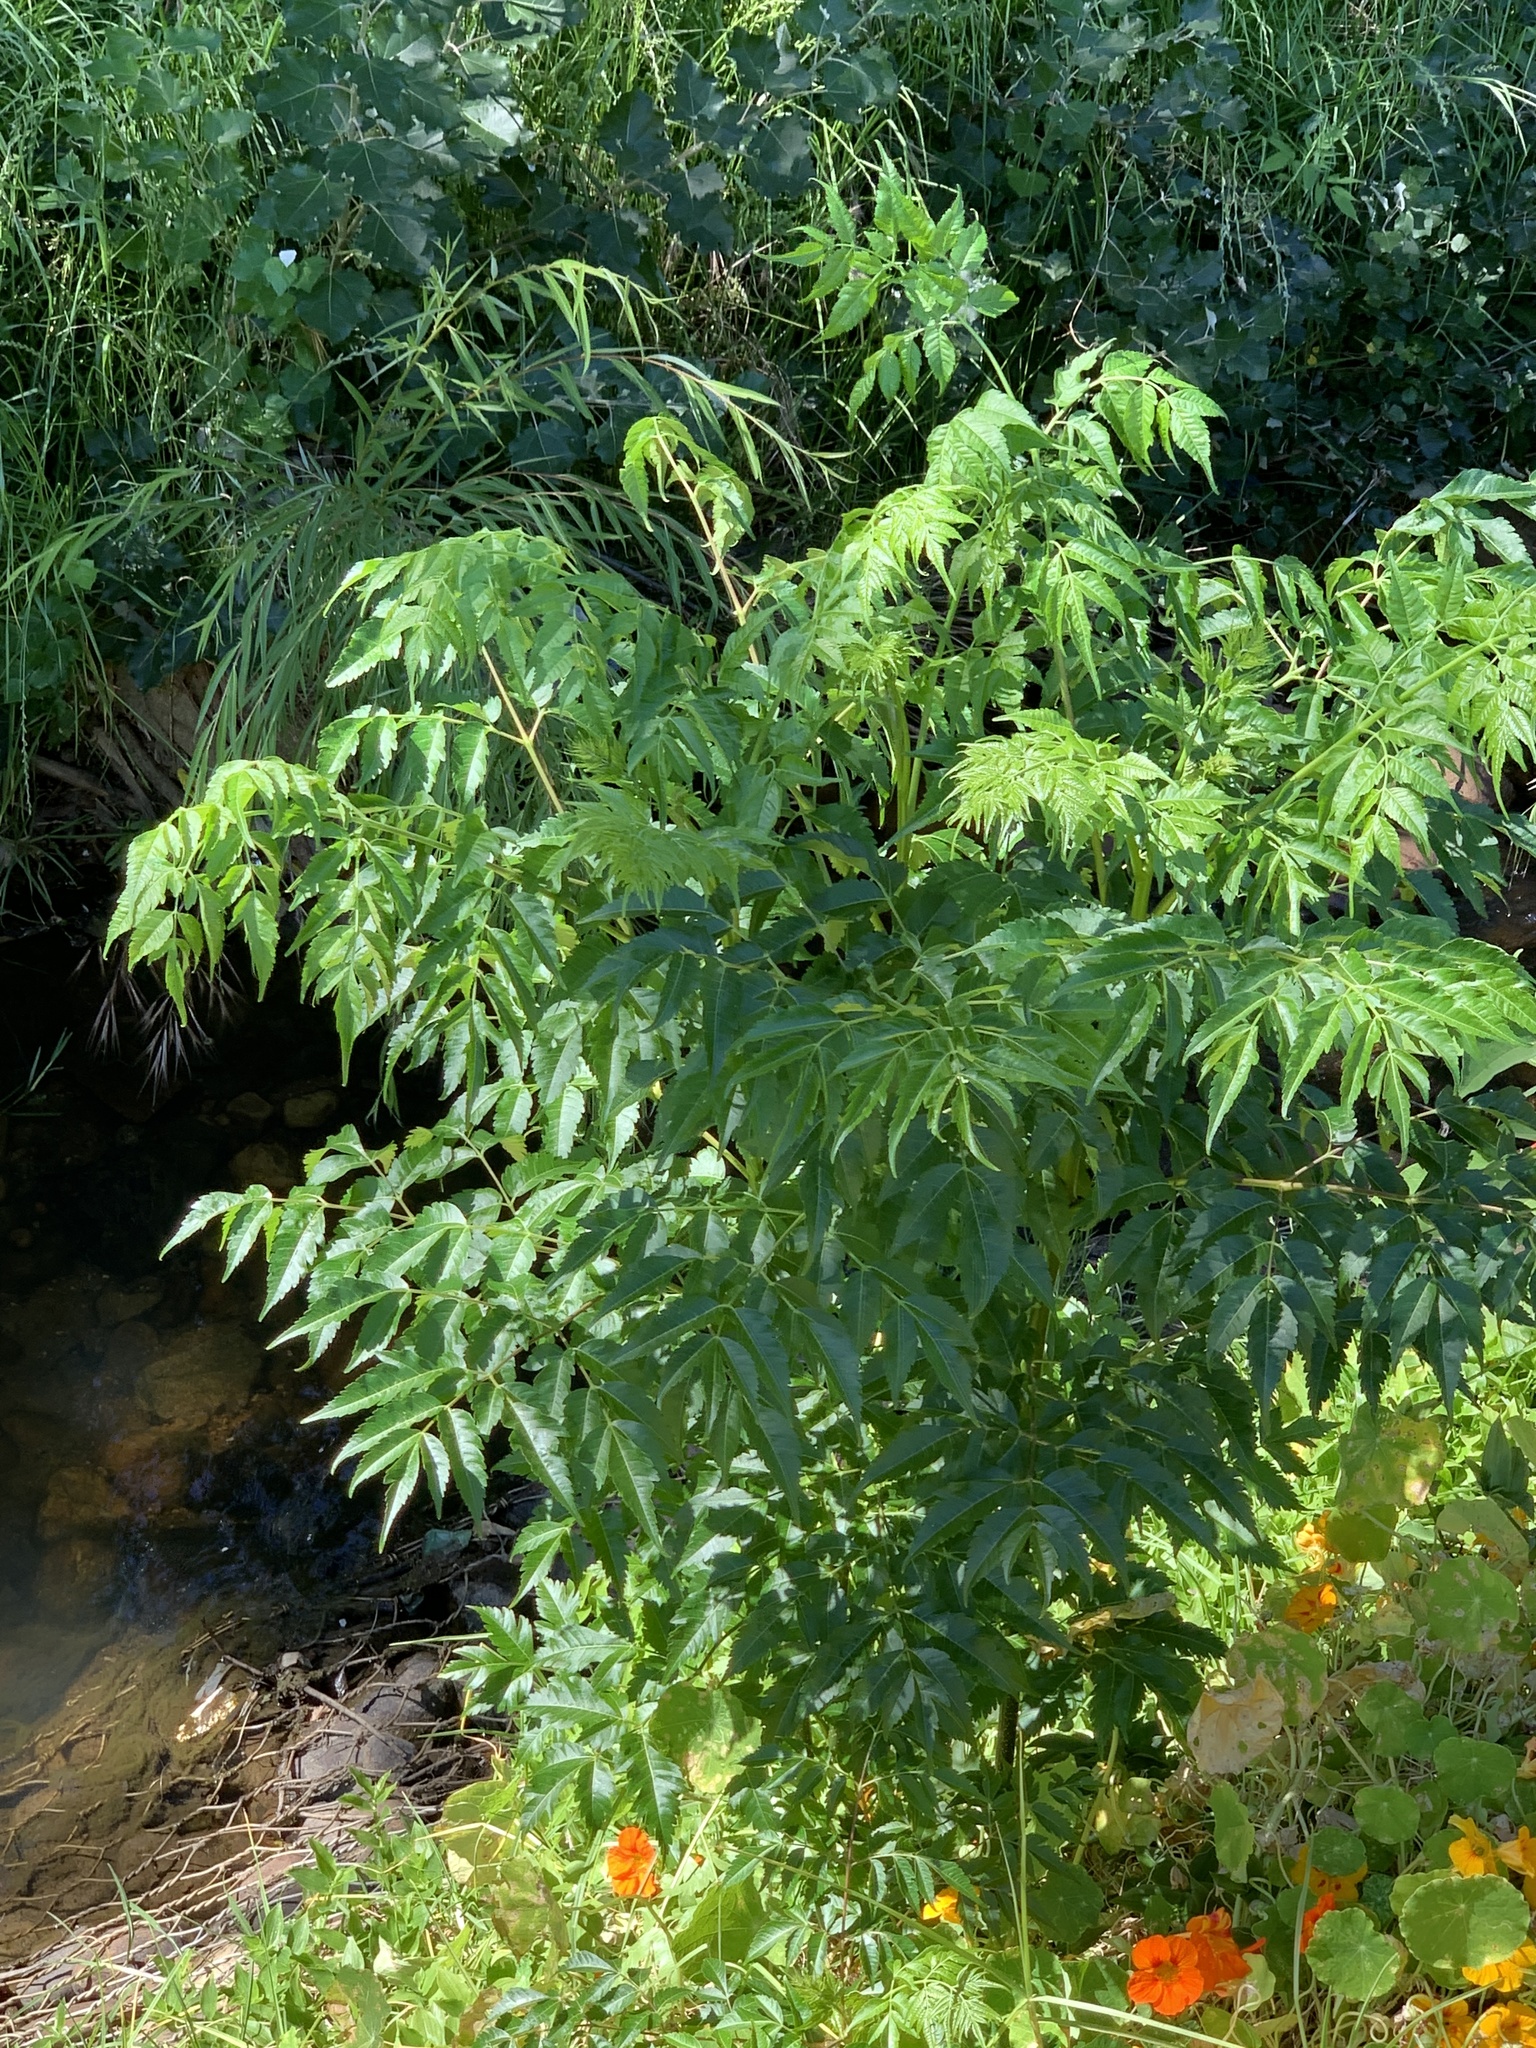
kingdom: Plantae
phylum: Tracheophyta
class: Magnoliopsida
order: Sapindales
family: Meliaceae
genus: Melia
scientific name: Melia azedarach
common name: Chinaberrytree
